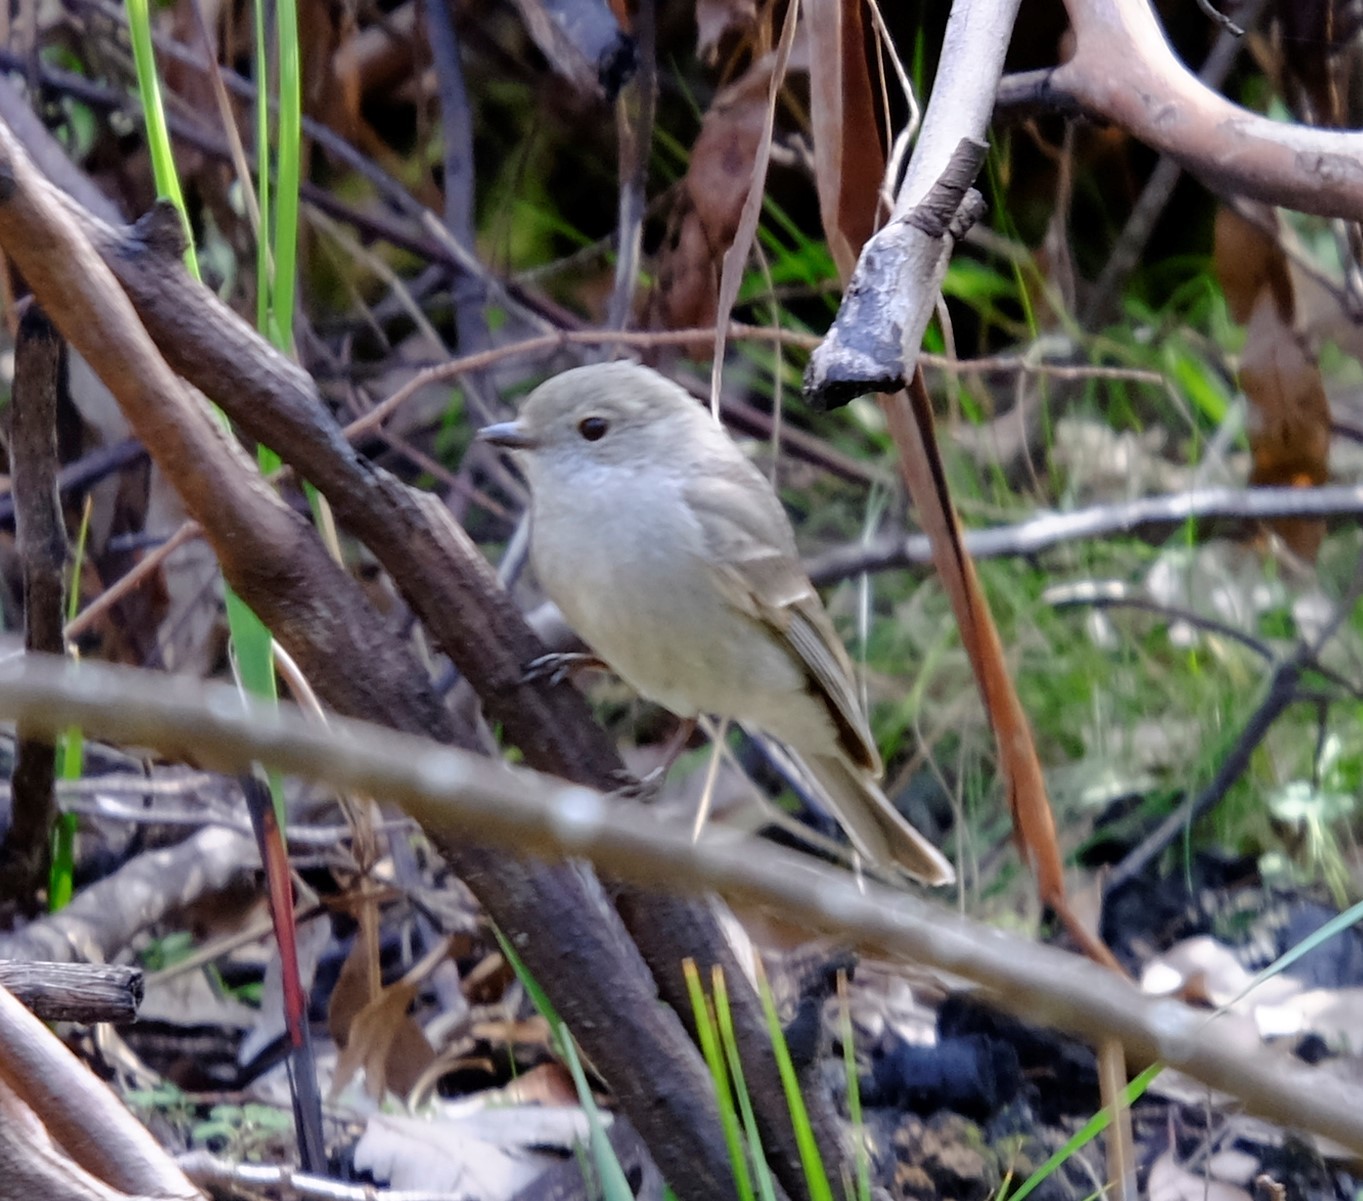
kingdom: Animalia
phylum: Chordata
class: Aves
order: Passeriformes
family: Pachycephalidae
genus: Pachycephala
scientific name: Pachycephala pectoralis
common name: Australian golden whistler
